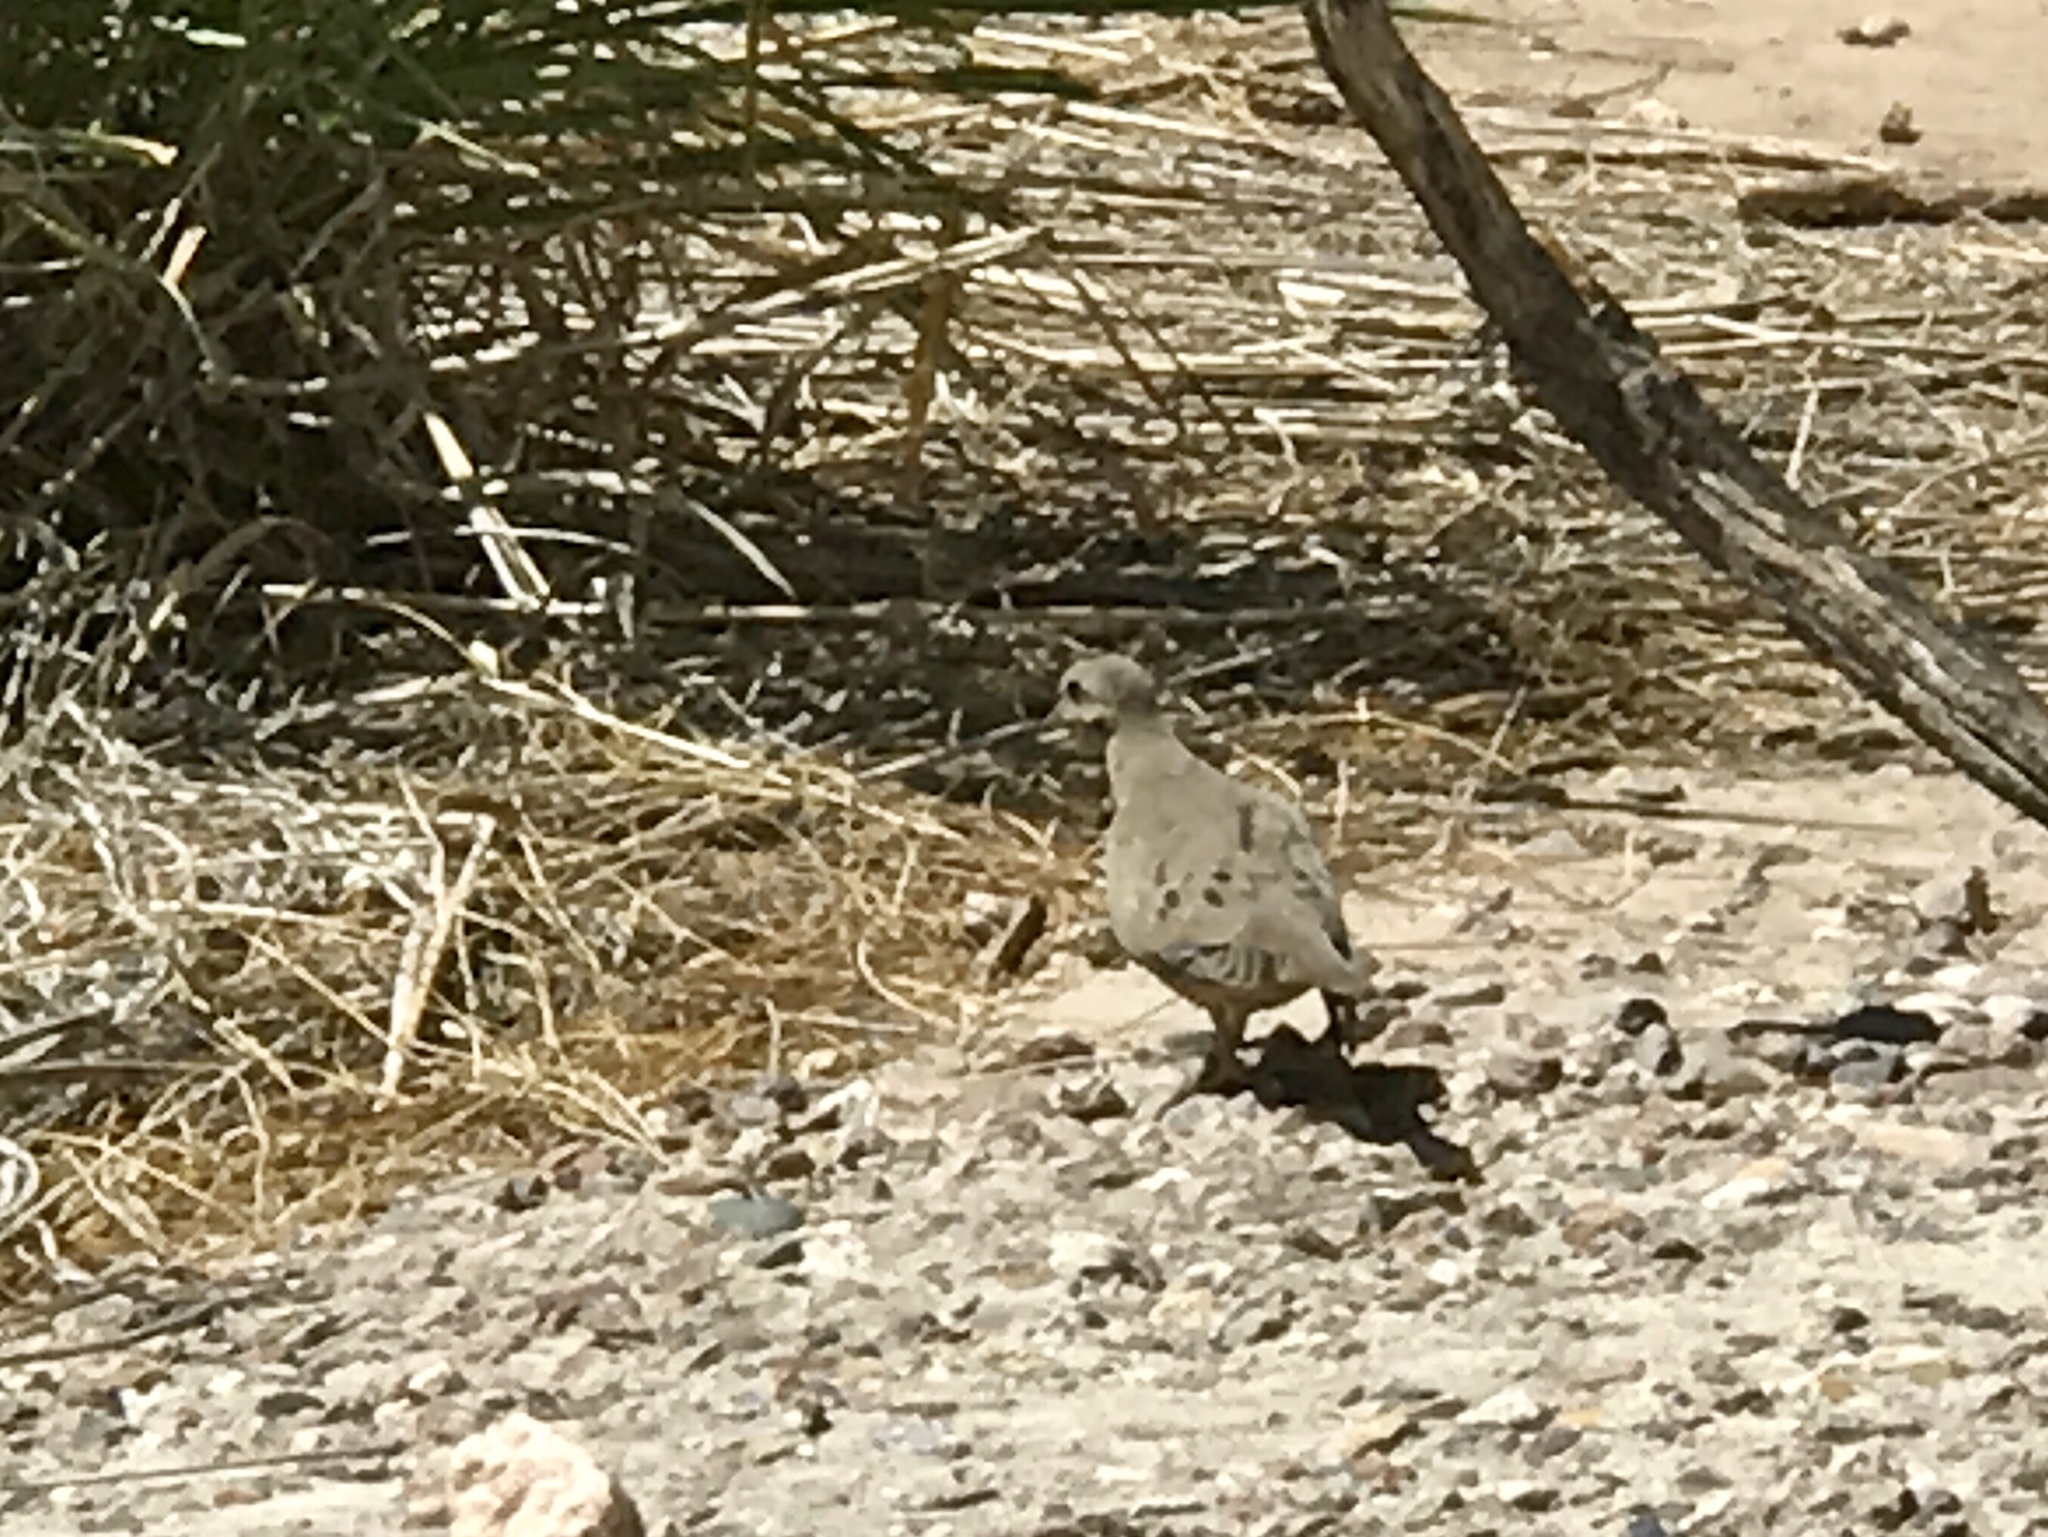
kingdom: Animalia
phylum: Chordata
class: Aves
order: Columbiformes
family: Columbidae
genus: Zenaida
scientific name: Zenaida macroura
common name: Mourning dove
